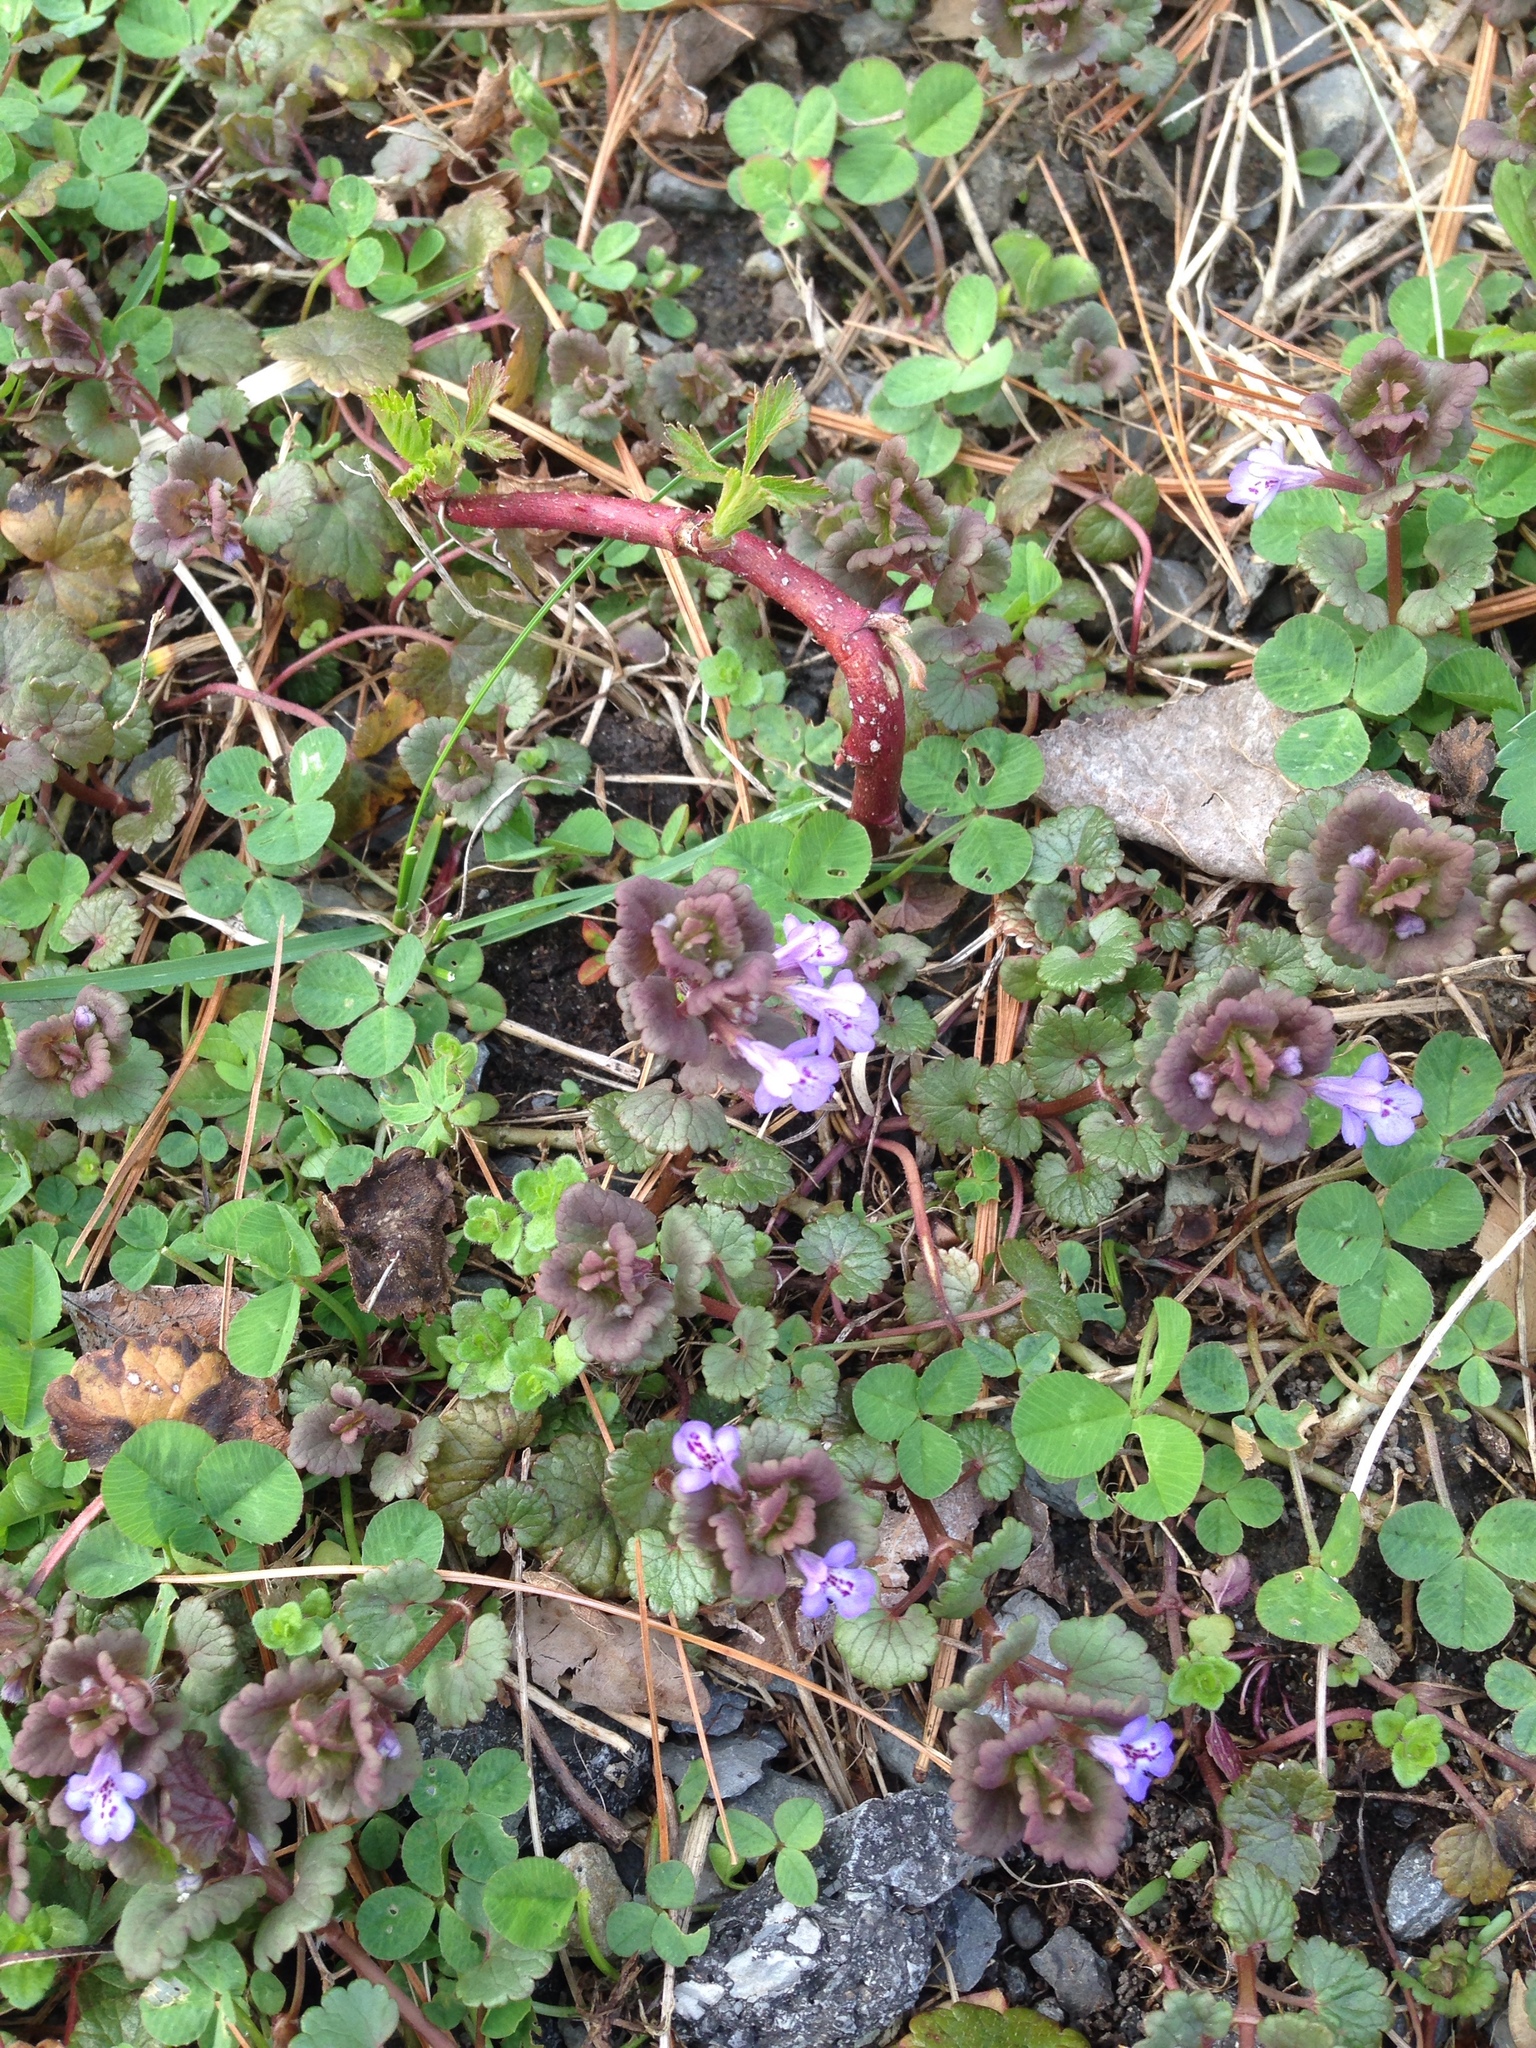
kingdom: Plantae
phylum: Tracheophyta
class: Magnoliopsida
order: Lamiales
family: Lamiaceae
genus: Glechoma
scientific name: Glechoma hederacea
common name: Ground ivy
